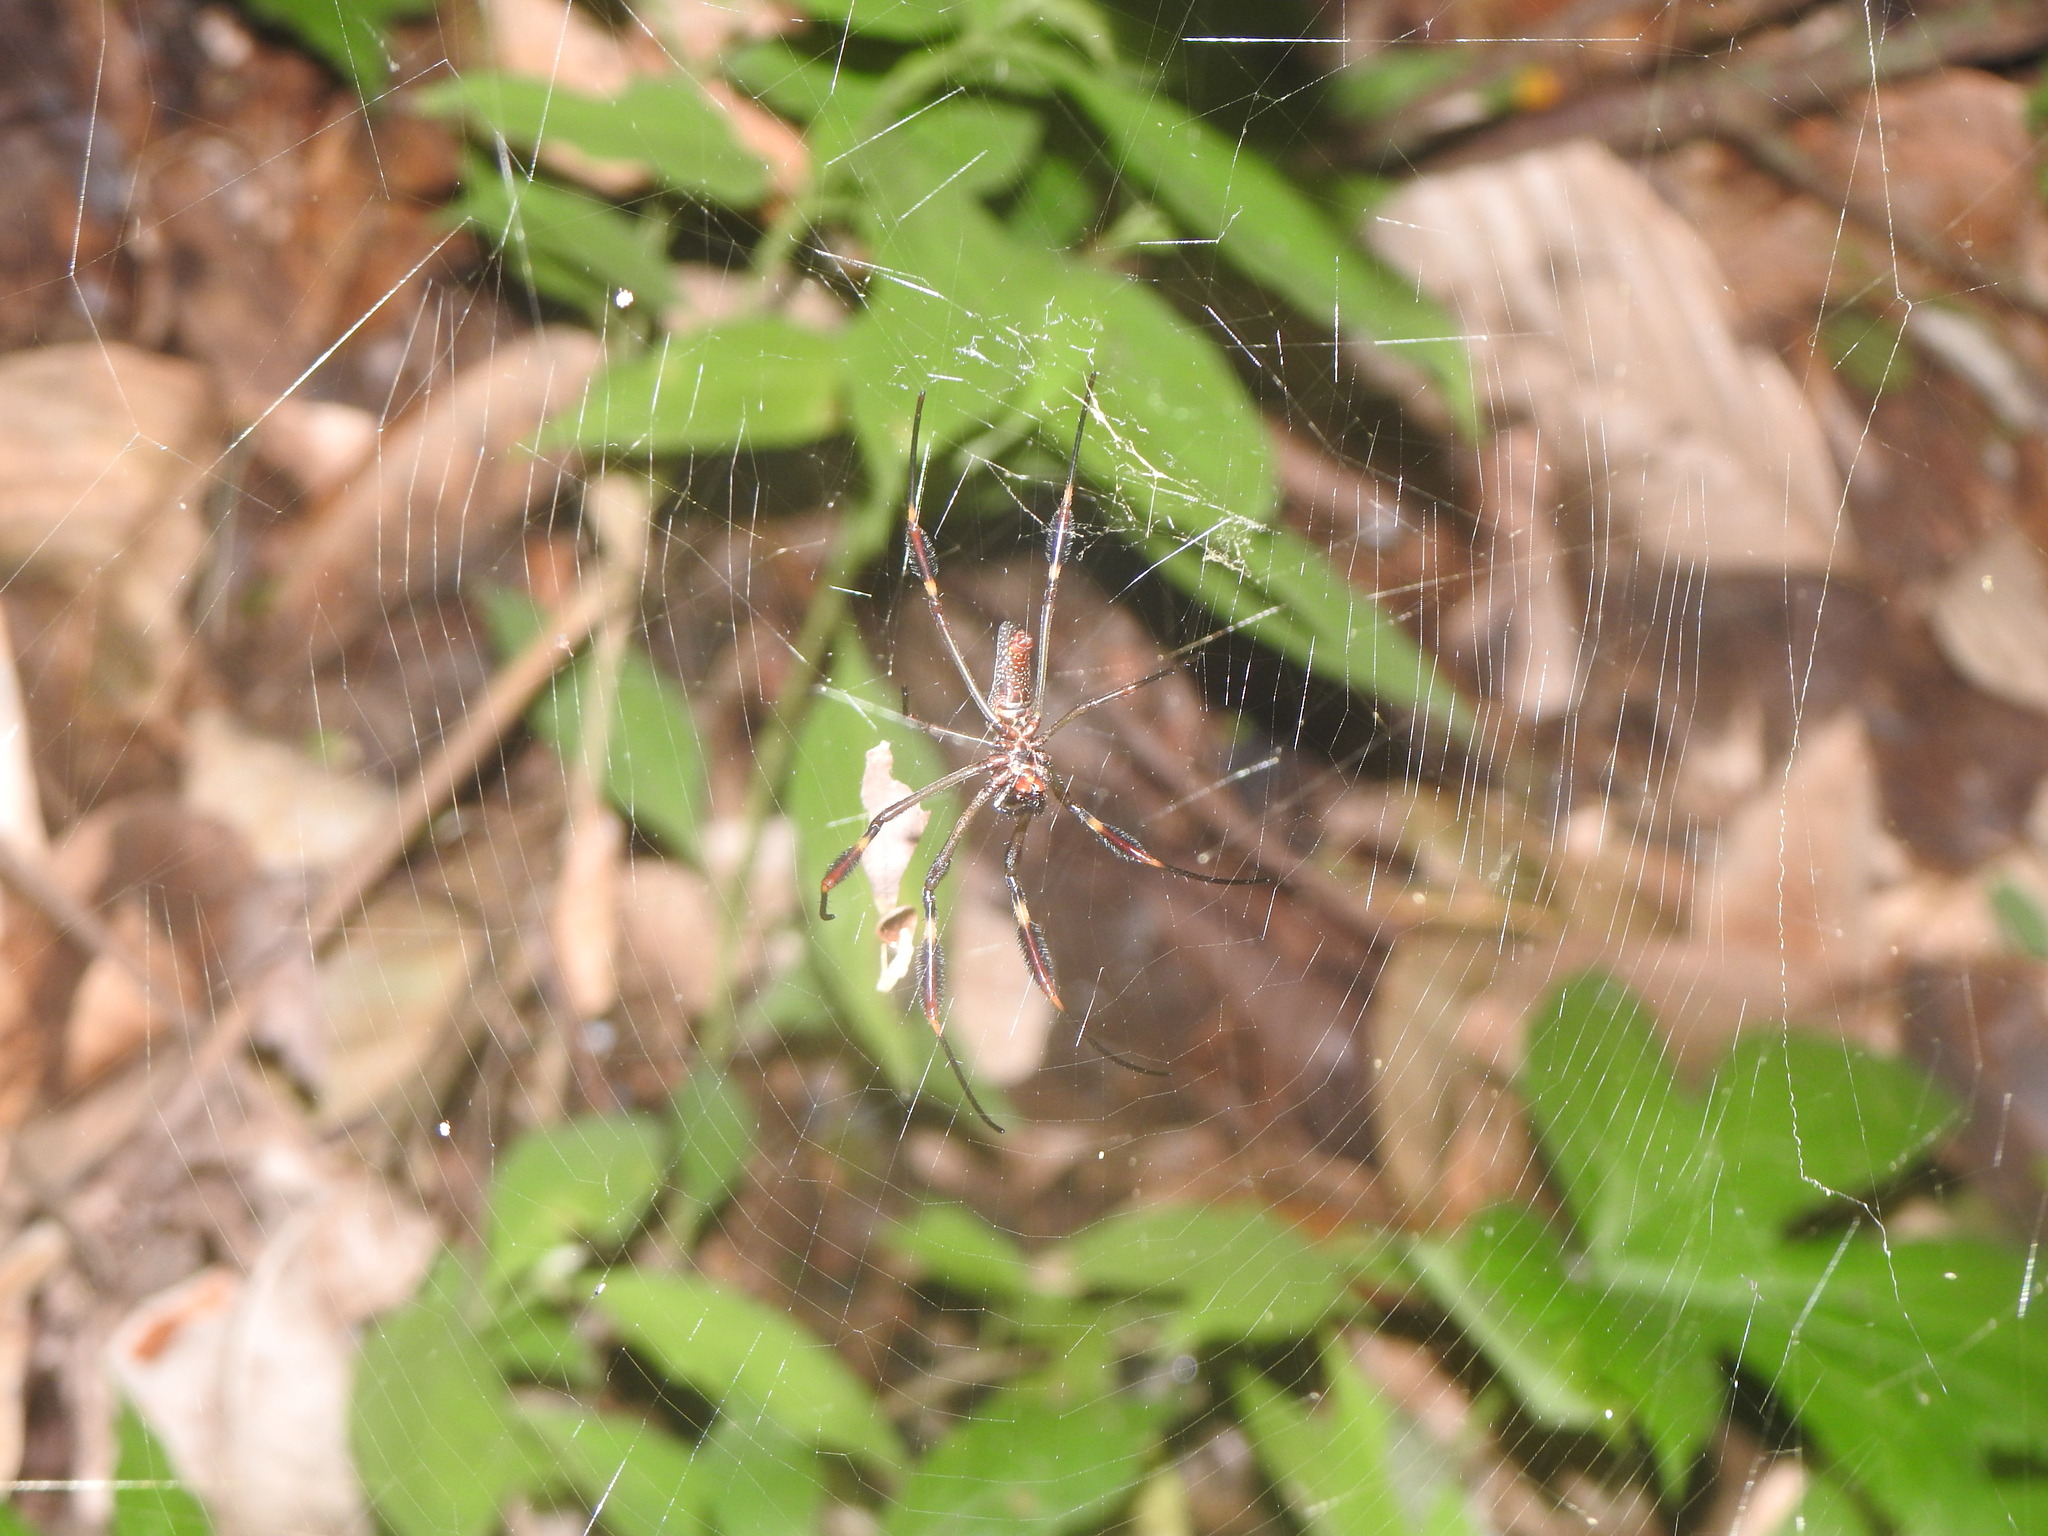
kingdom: Animalia
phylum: Arthropoda
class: Arachnida
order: Araneae
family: Araneidae
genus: Trichonephila
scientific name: Trichonephila clavipes
